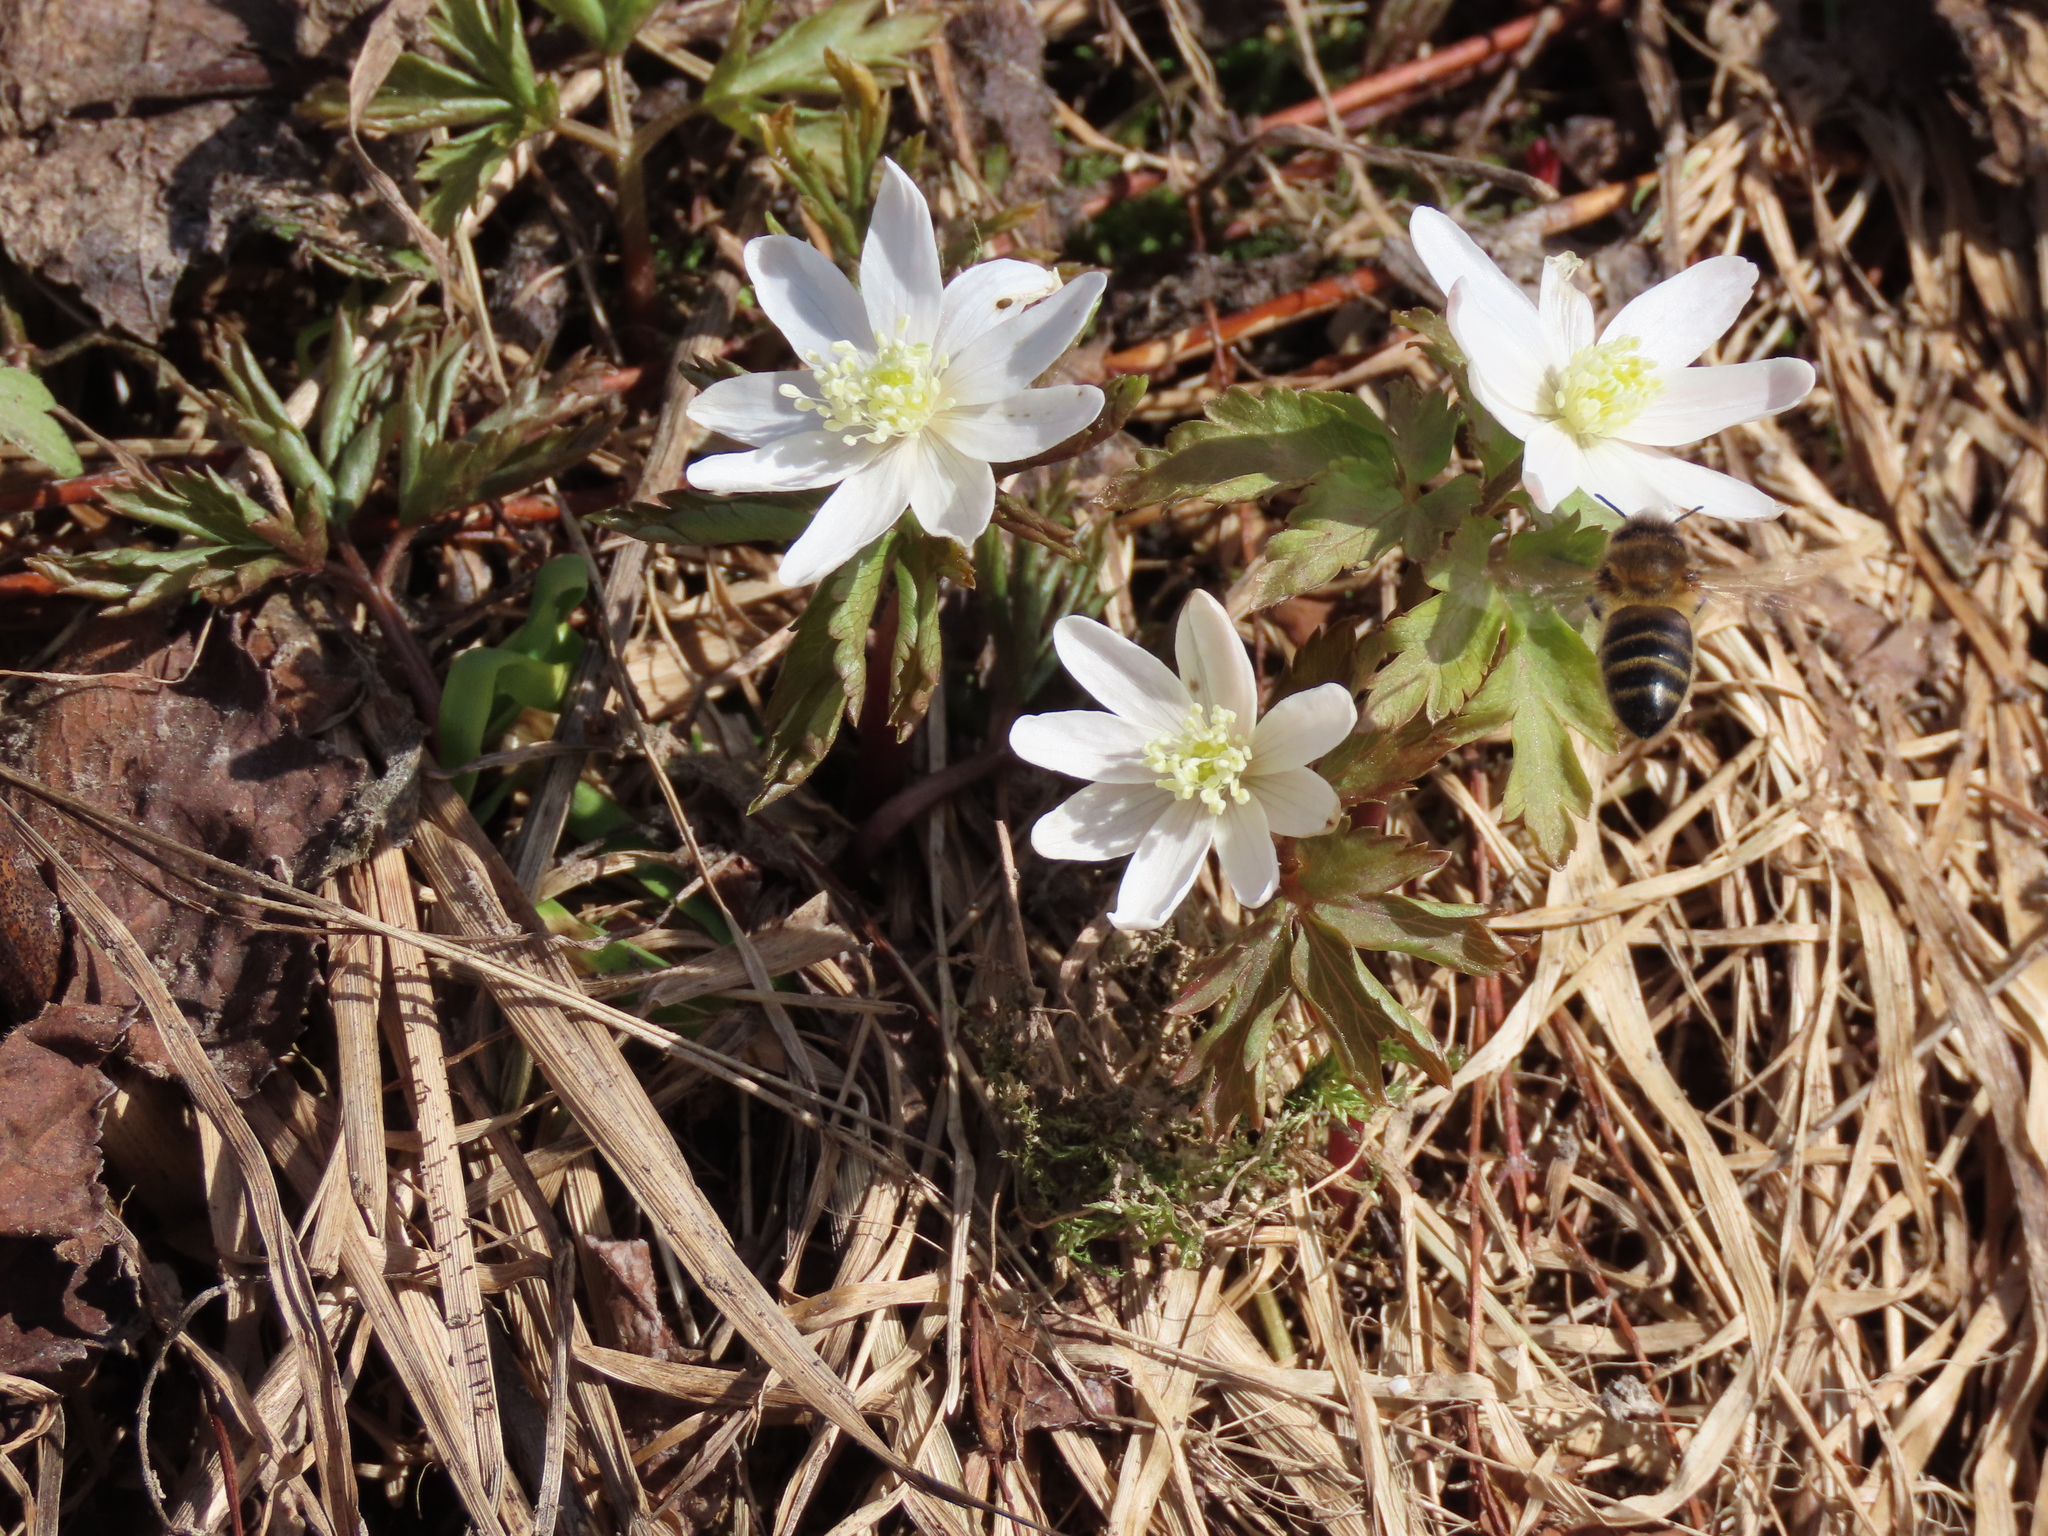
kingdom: Plantae
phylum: Tracheophyta
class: Magnoliopsida
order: Ranunculales
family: Ranunculaceae
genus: Anemone
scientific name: Anemone altaica
